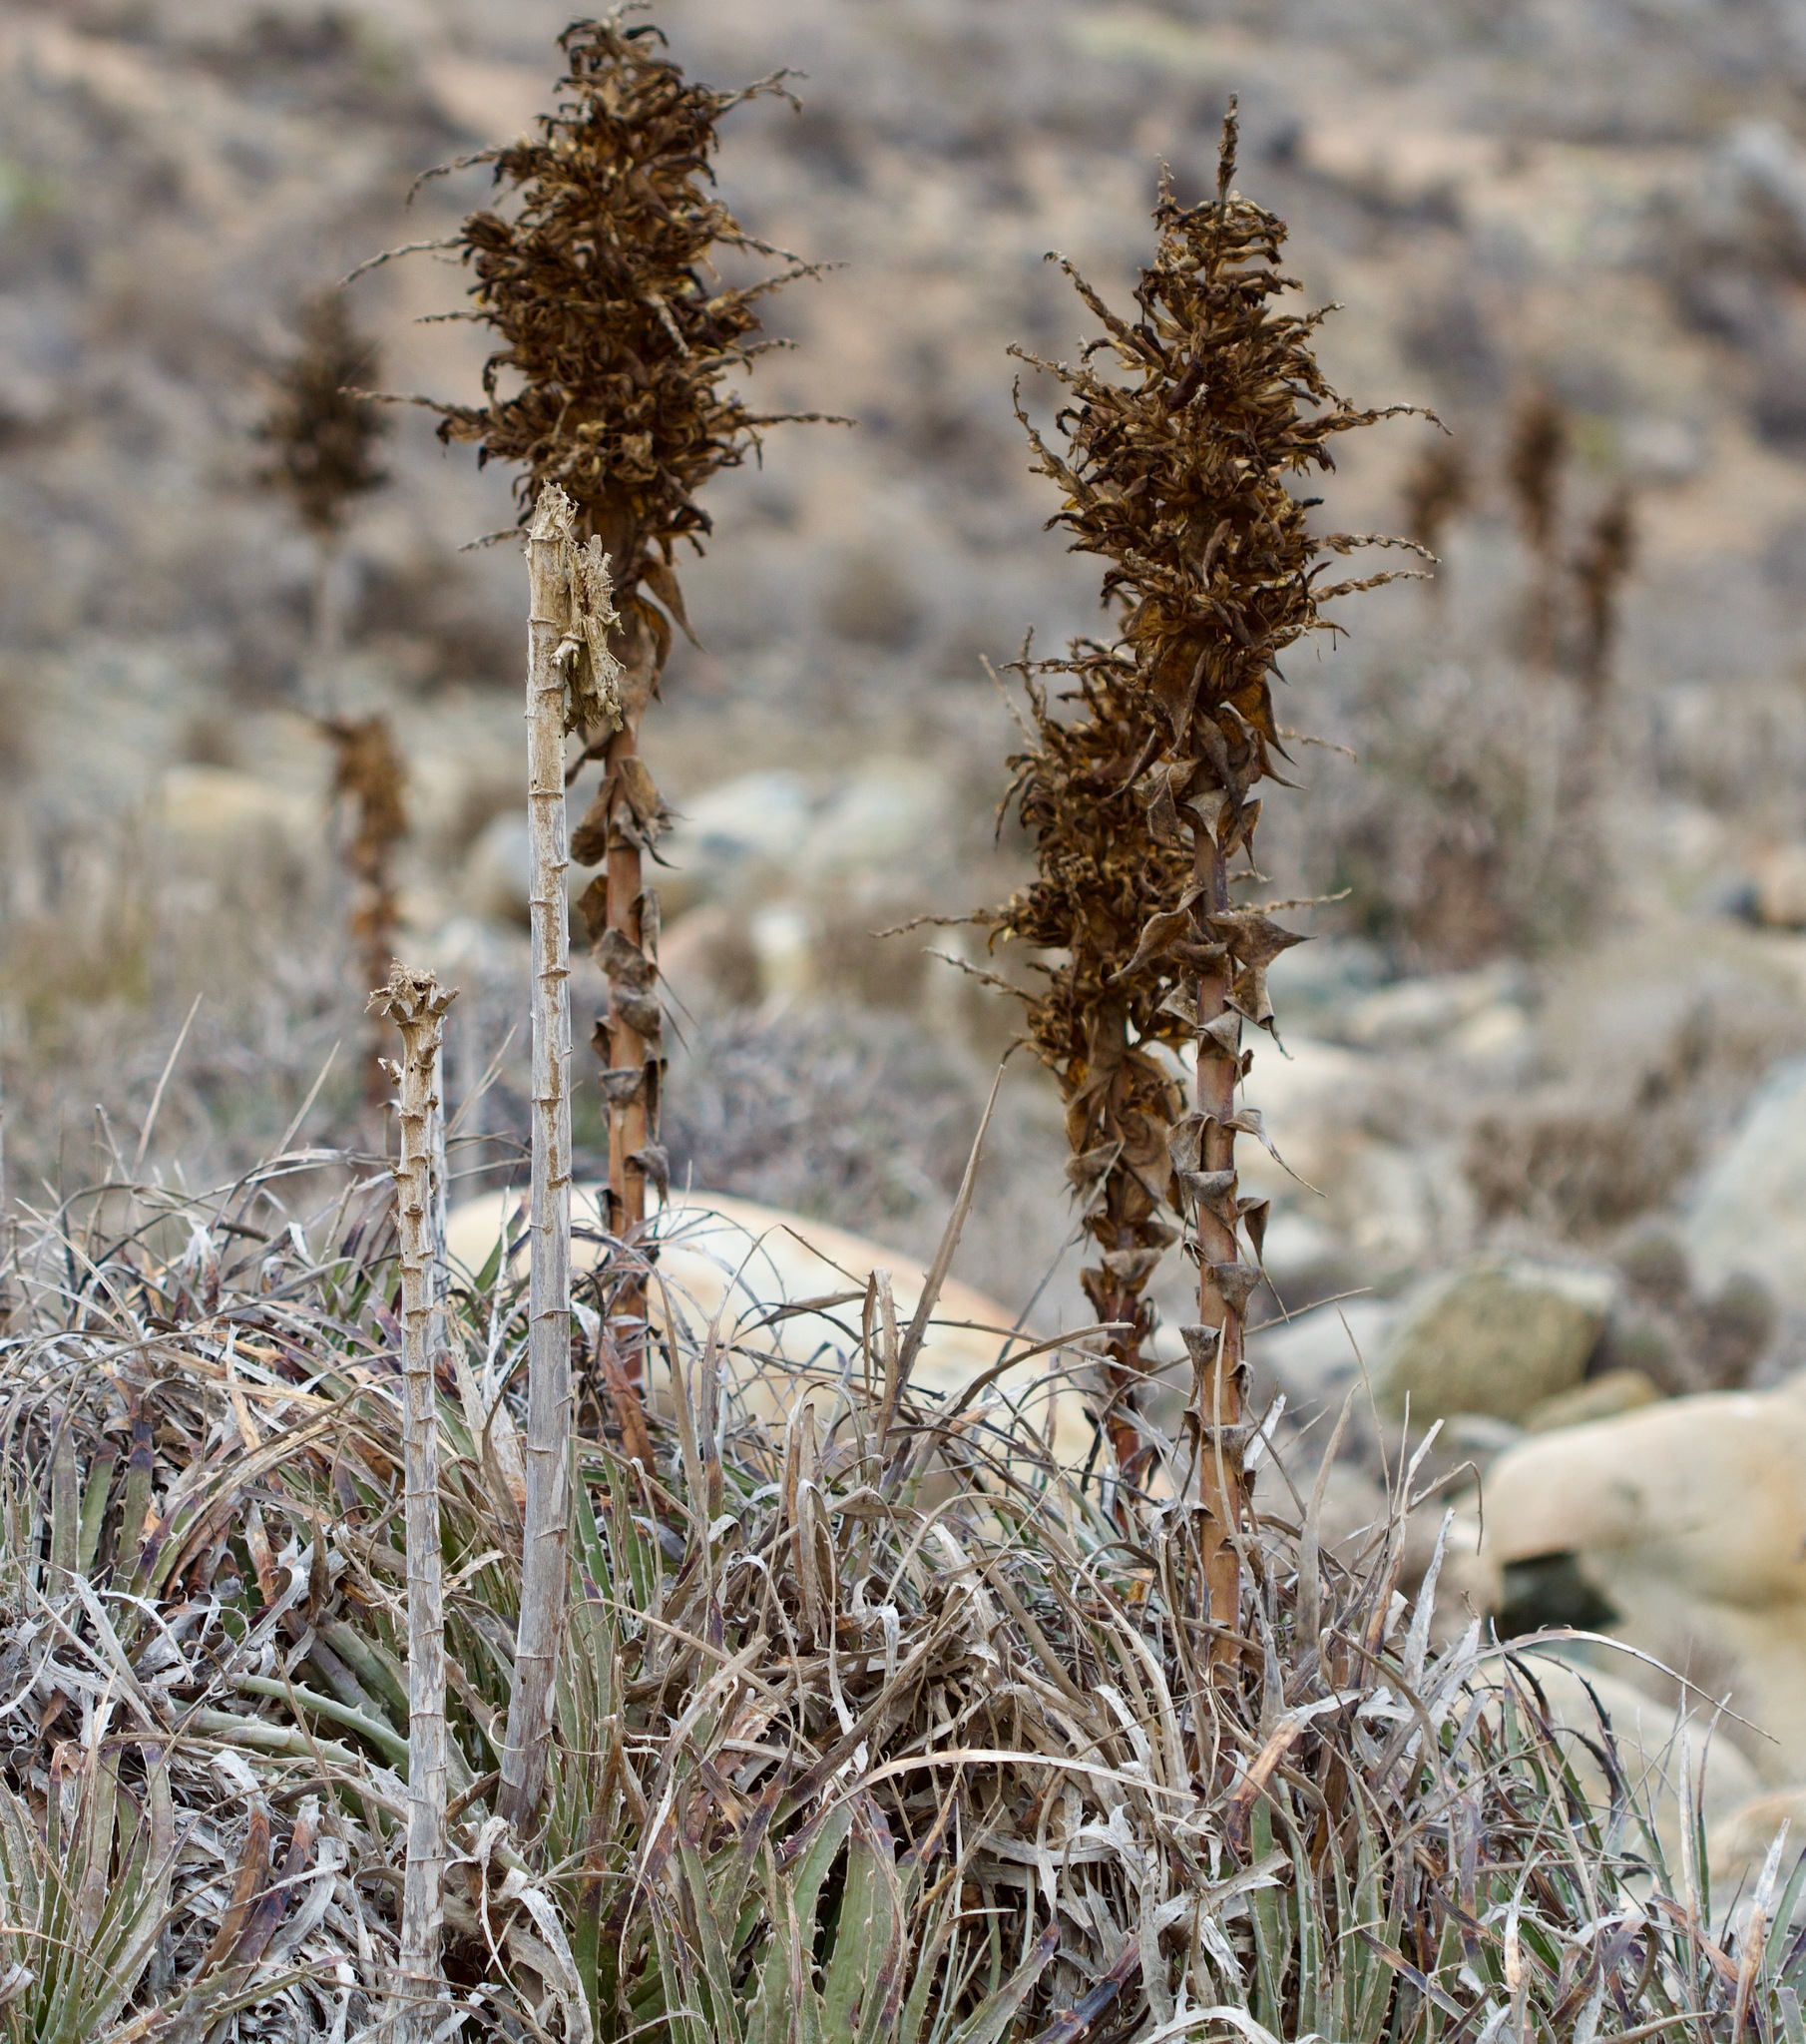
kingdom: Plantae
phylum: Tracheophyta
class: Liliopsida
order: Poales
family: Bromeliaceae
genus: Puya
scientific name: Puya gilmartiniae
